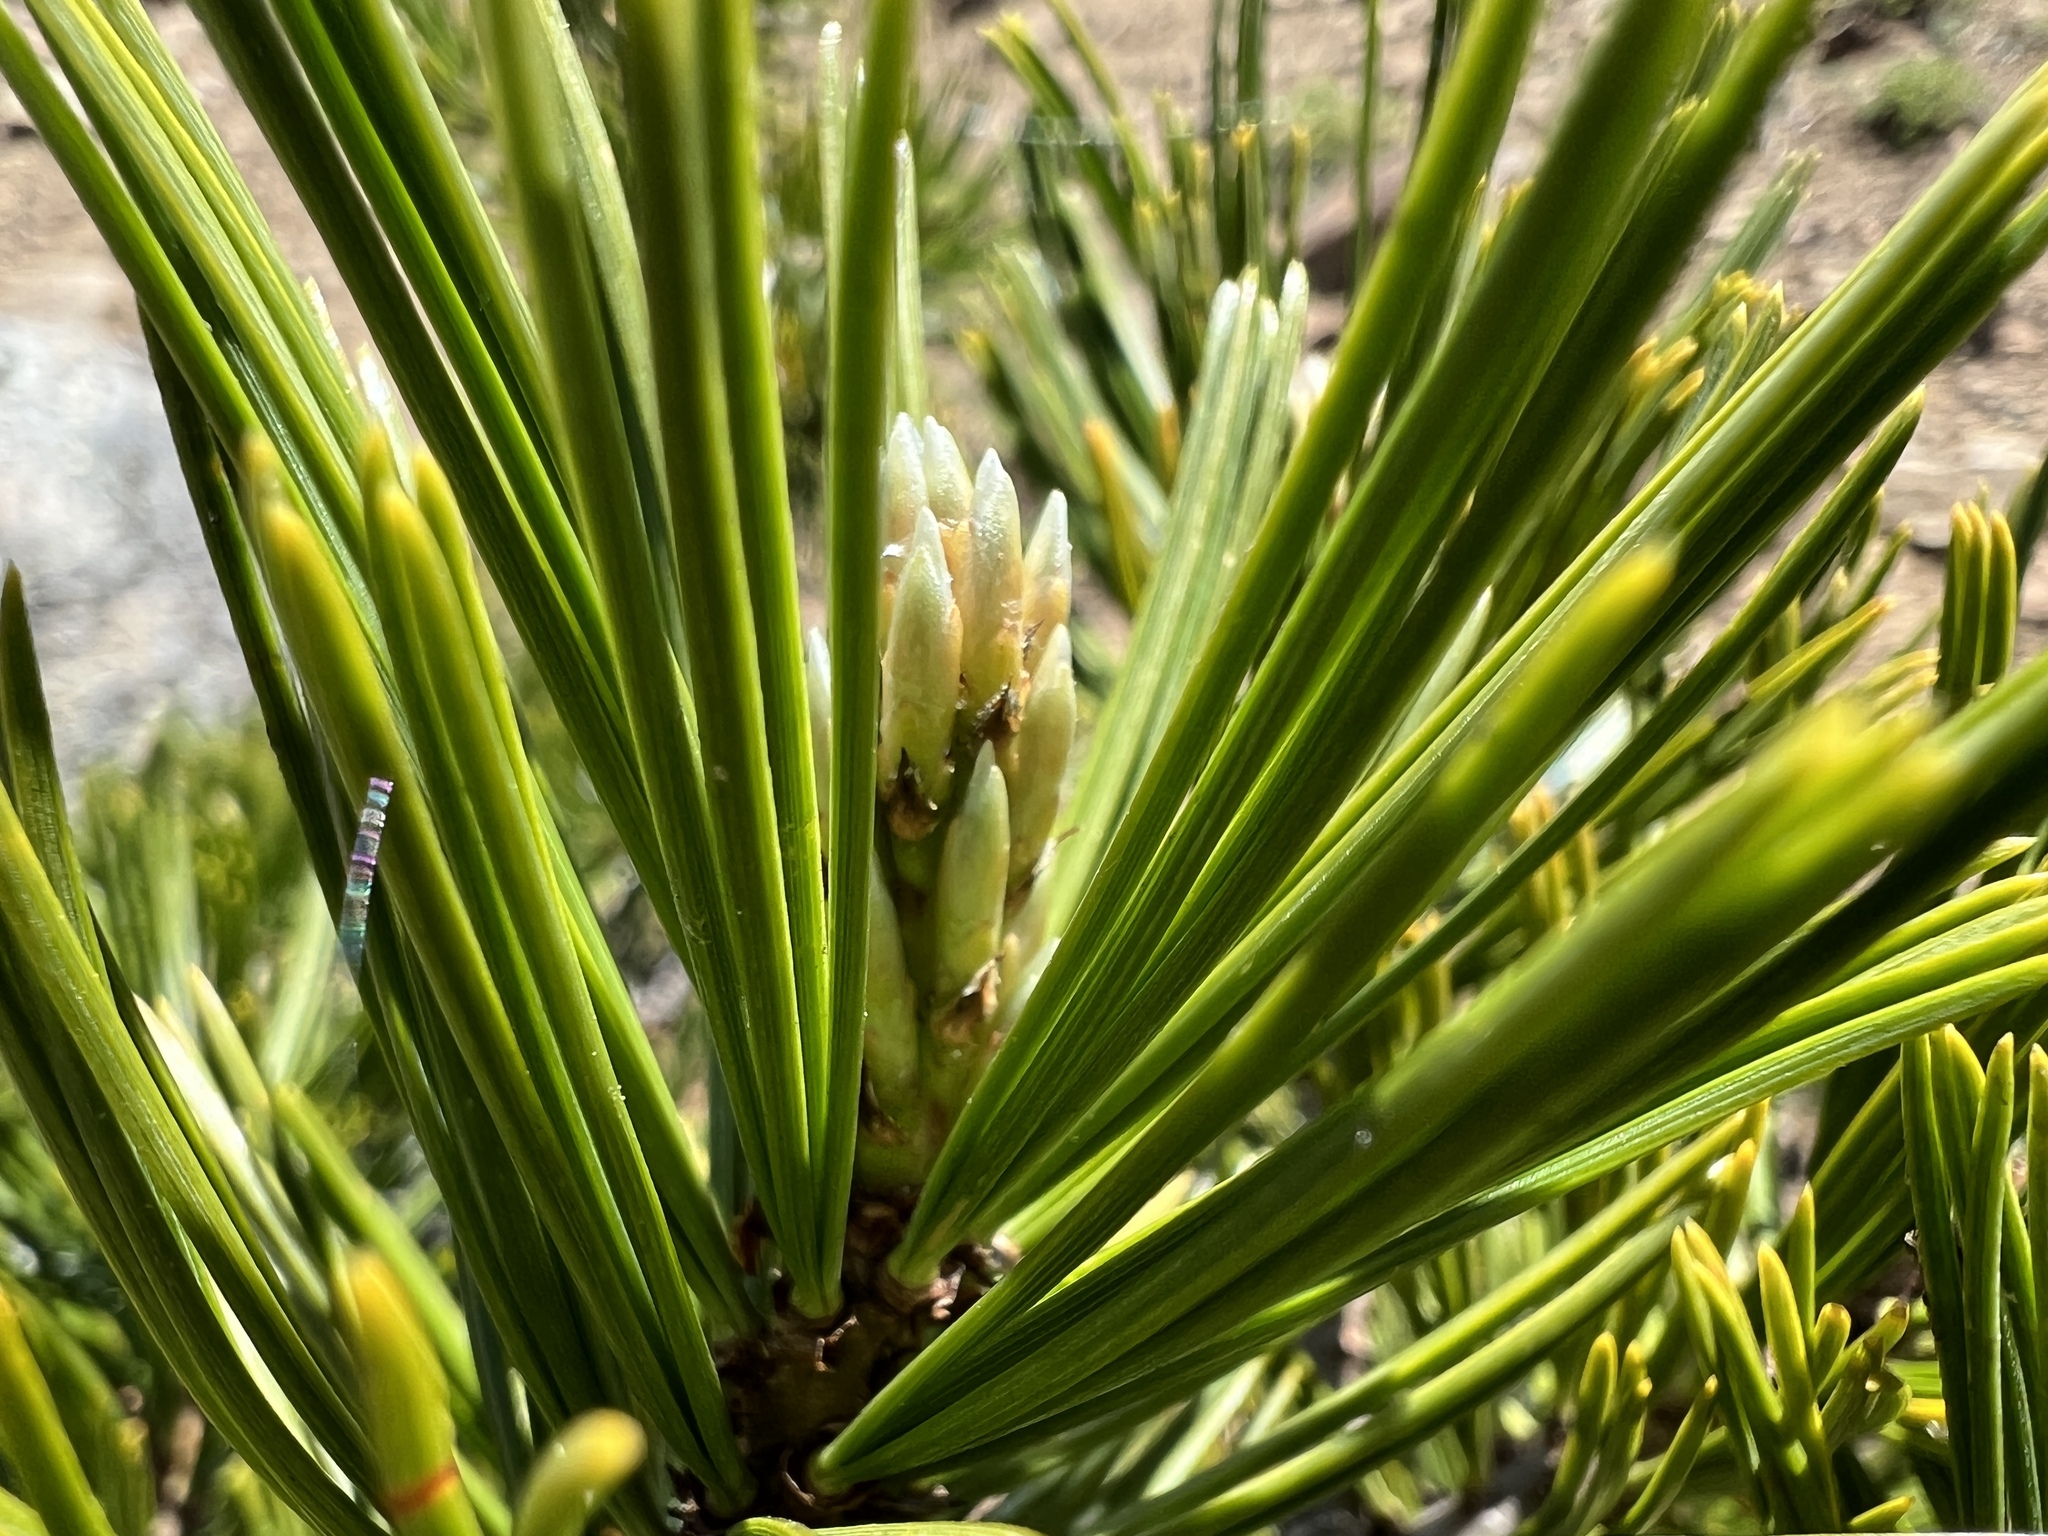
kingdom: Plantae
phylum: Tracheophyta
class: Pinopsida
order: Pinales
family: Pinaceae
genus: Pinus
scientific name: Pinus albicaulis
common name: Whitebark pine
